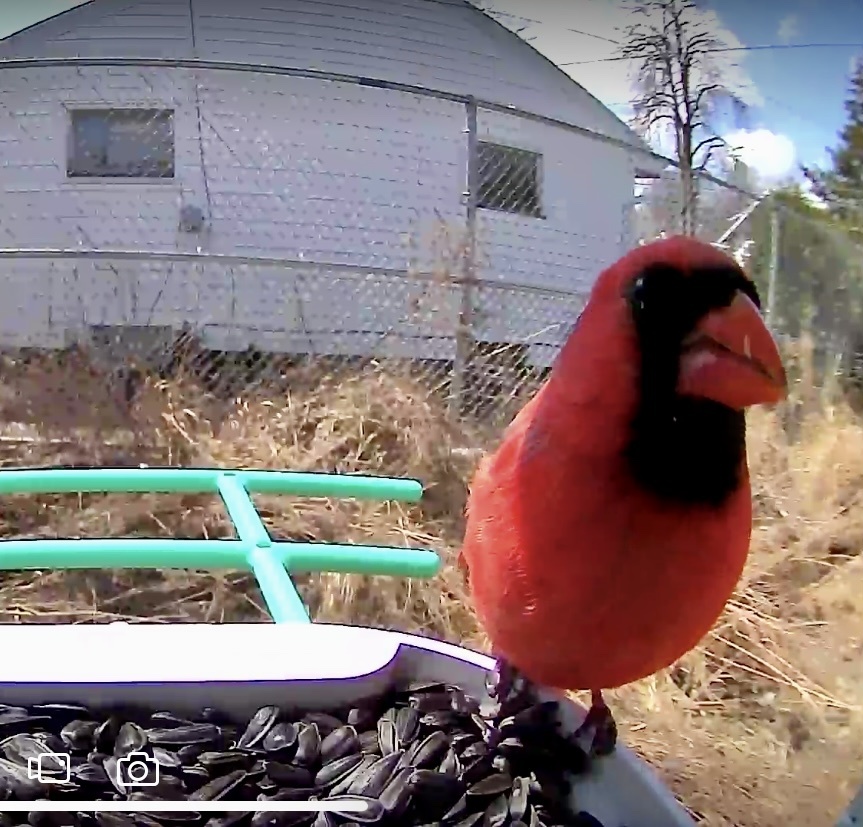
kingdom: Animalia
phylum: Chordata
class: Aves
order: Passeriformes
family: Cardinalidae
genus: Cardinalis
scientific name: Cardinalis cardinalis
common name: Northern cardinal
